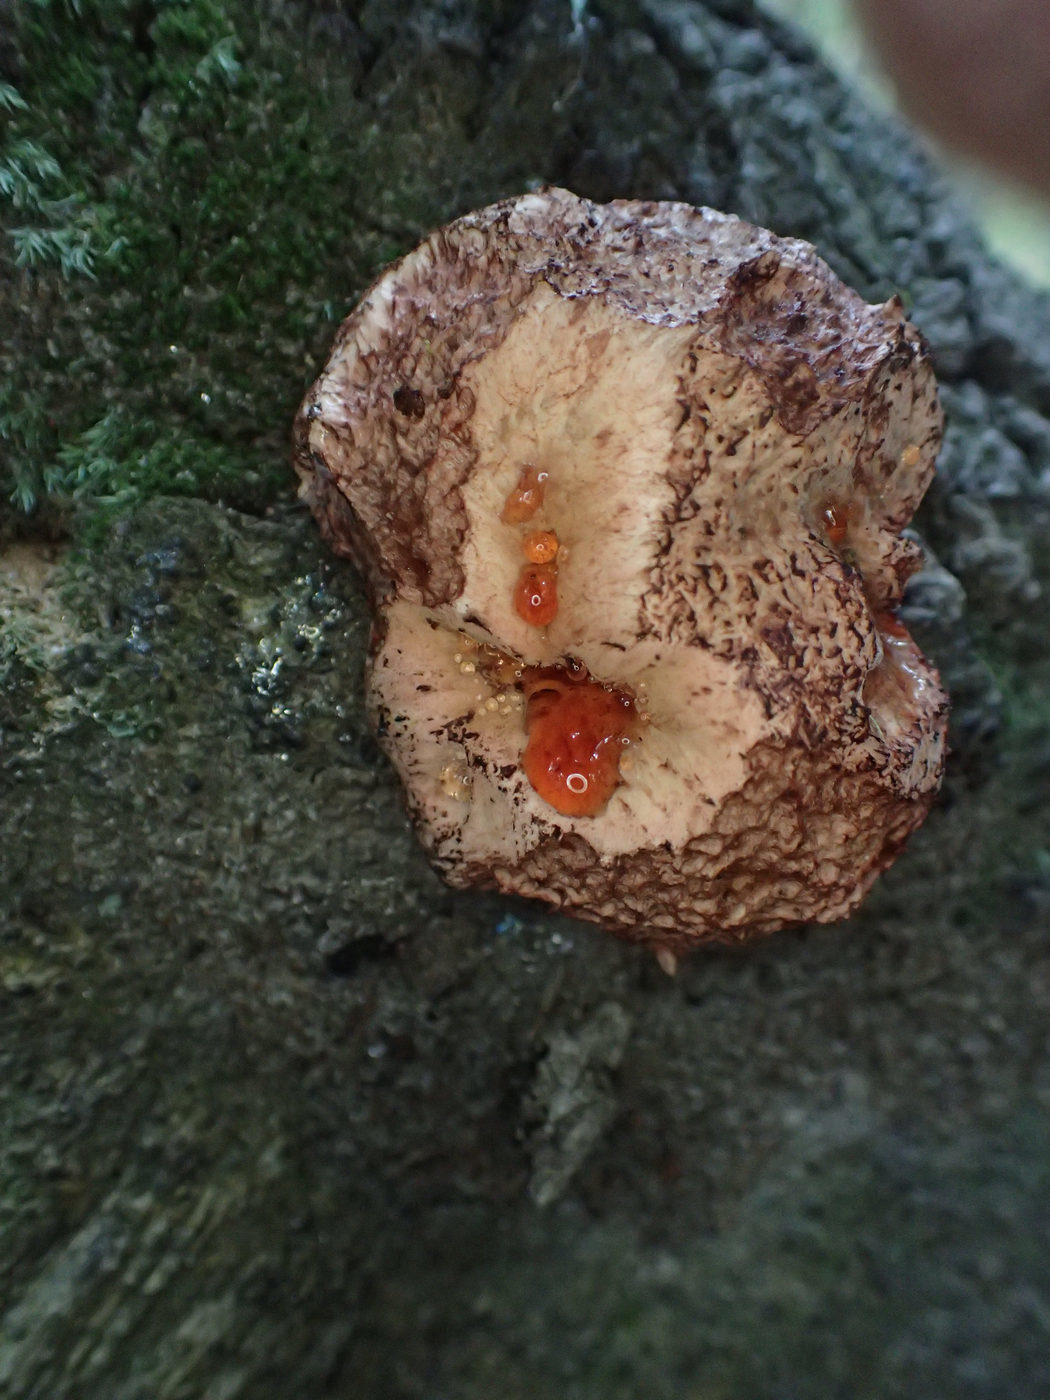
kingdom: Fungi
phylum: Basidiomycota
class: Agaricomycetes
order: Agaricales
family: Fistulinaceae
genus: Fistulina
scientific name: Fistulina hepatica
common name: Beef-steak fungus
